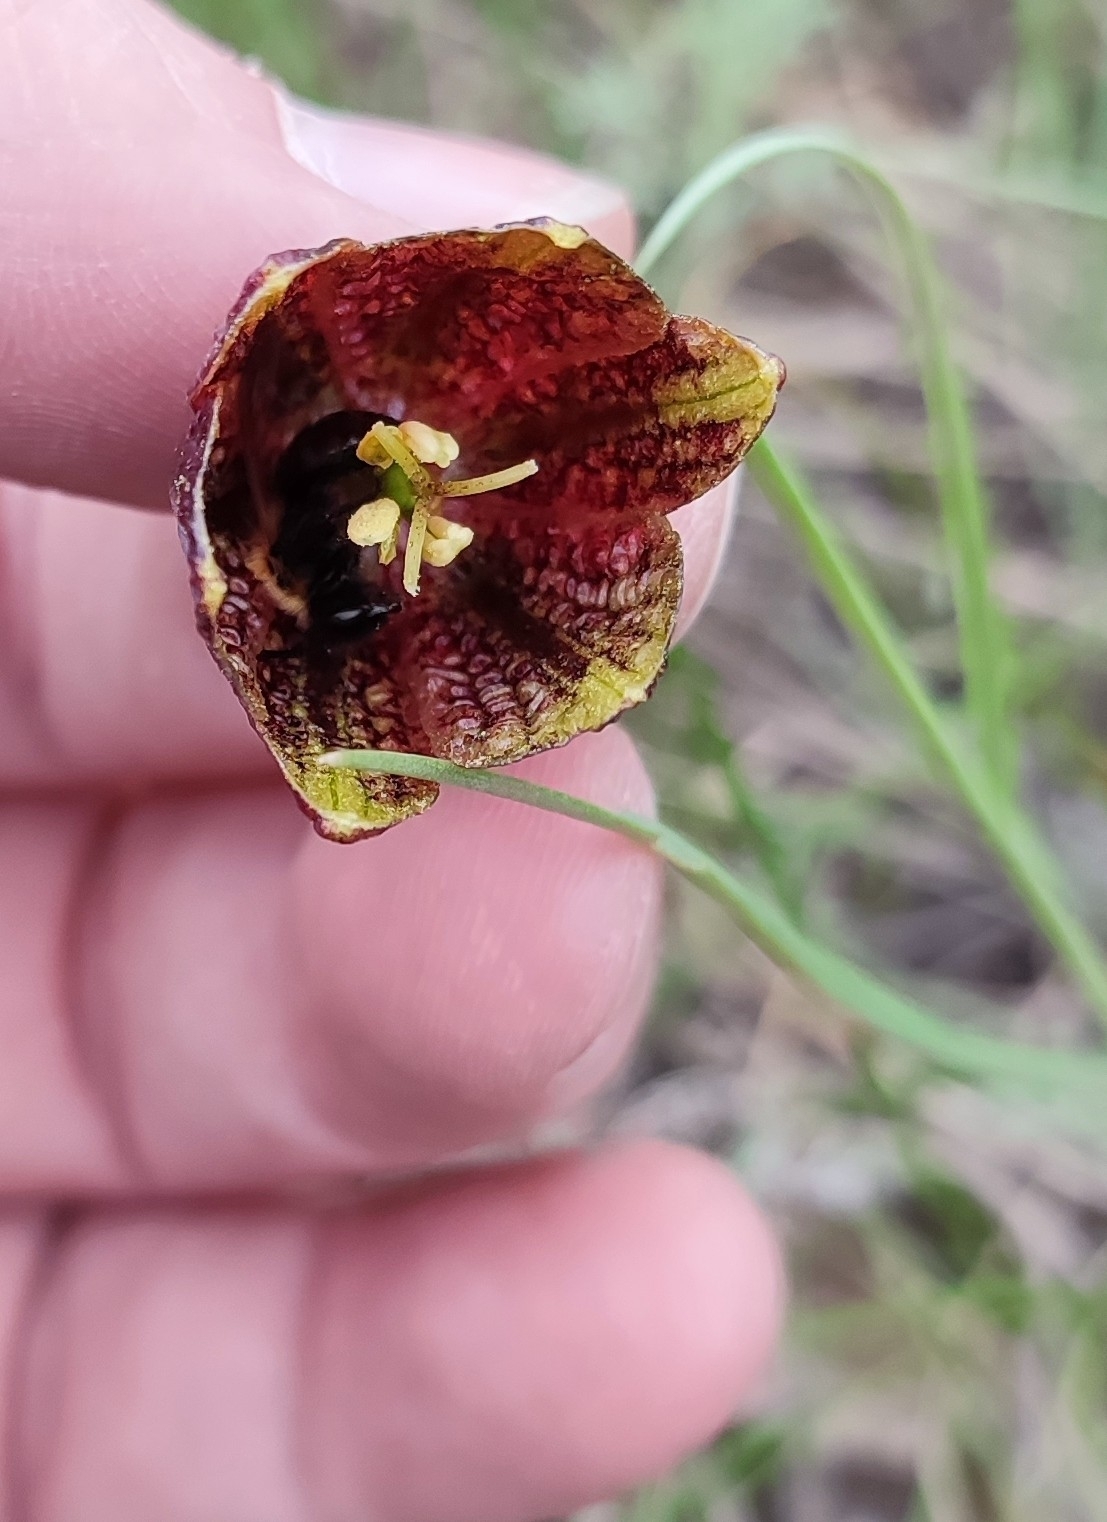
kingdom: Plantae
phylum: Tracheophyta
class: Liliopsida
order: Liliales
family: Liliaceae
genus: Fritillaria
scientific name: Fritillaria meleagroides
